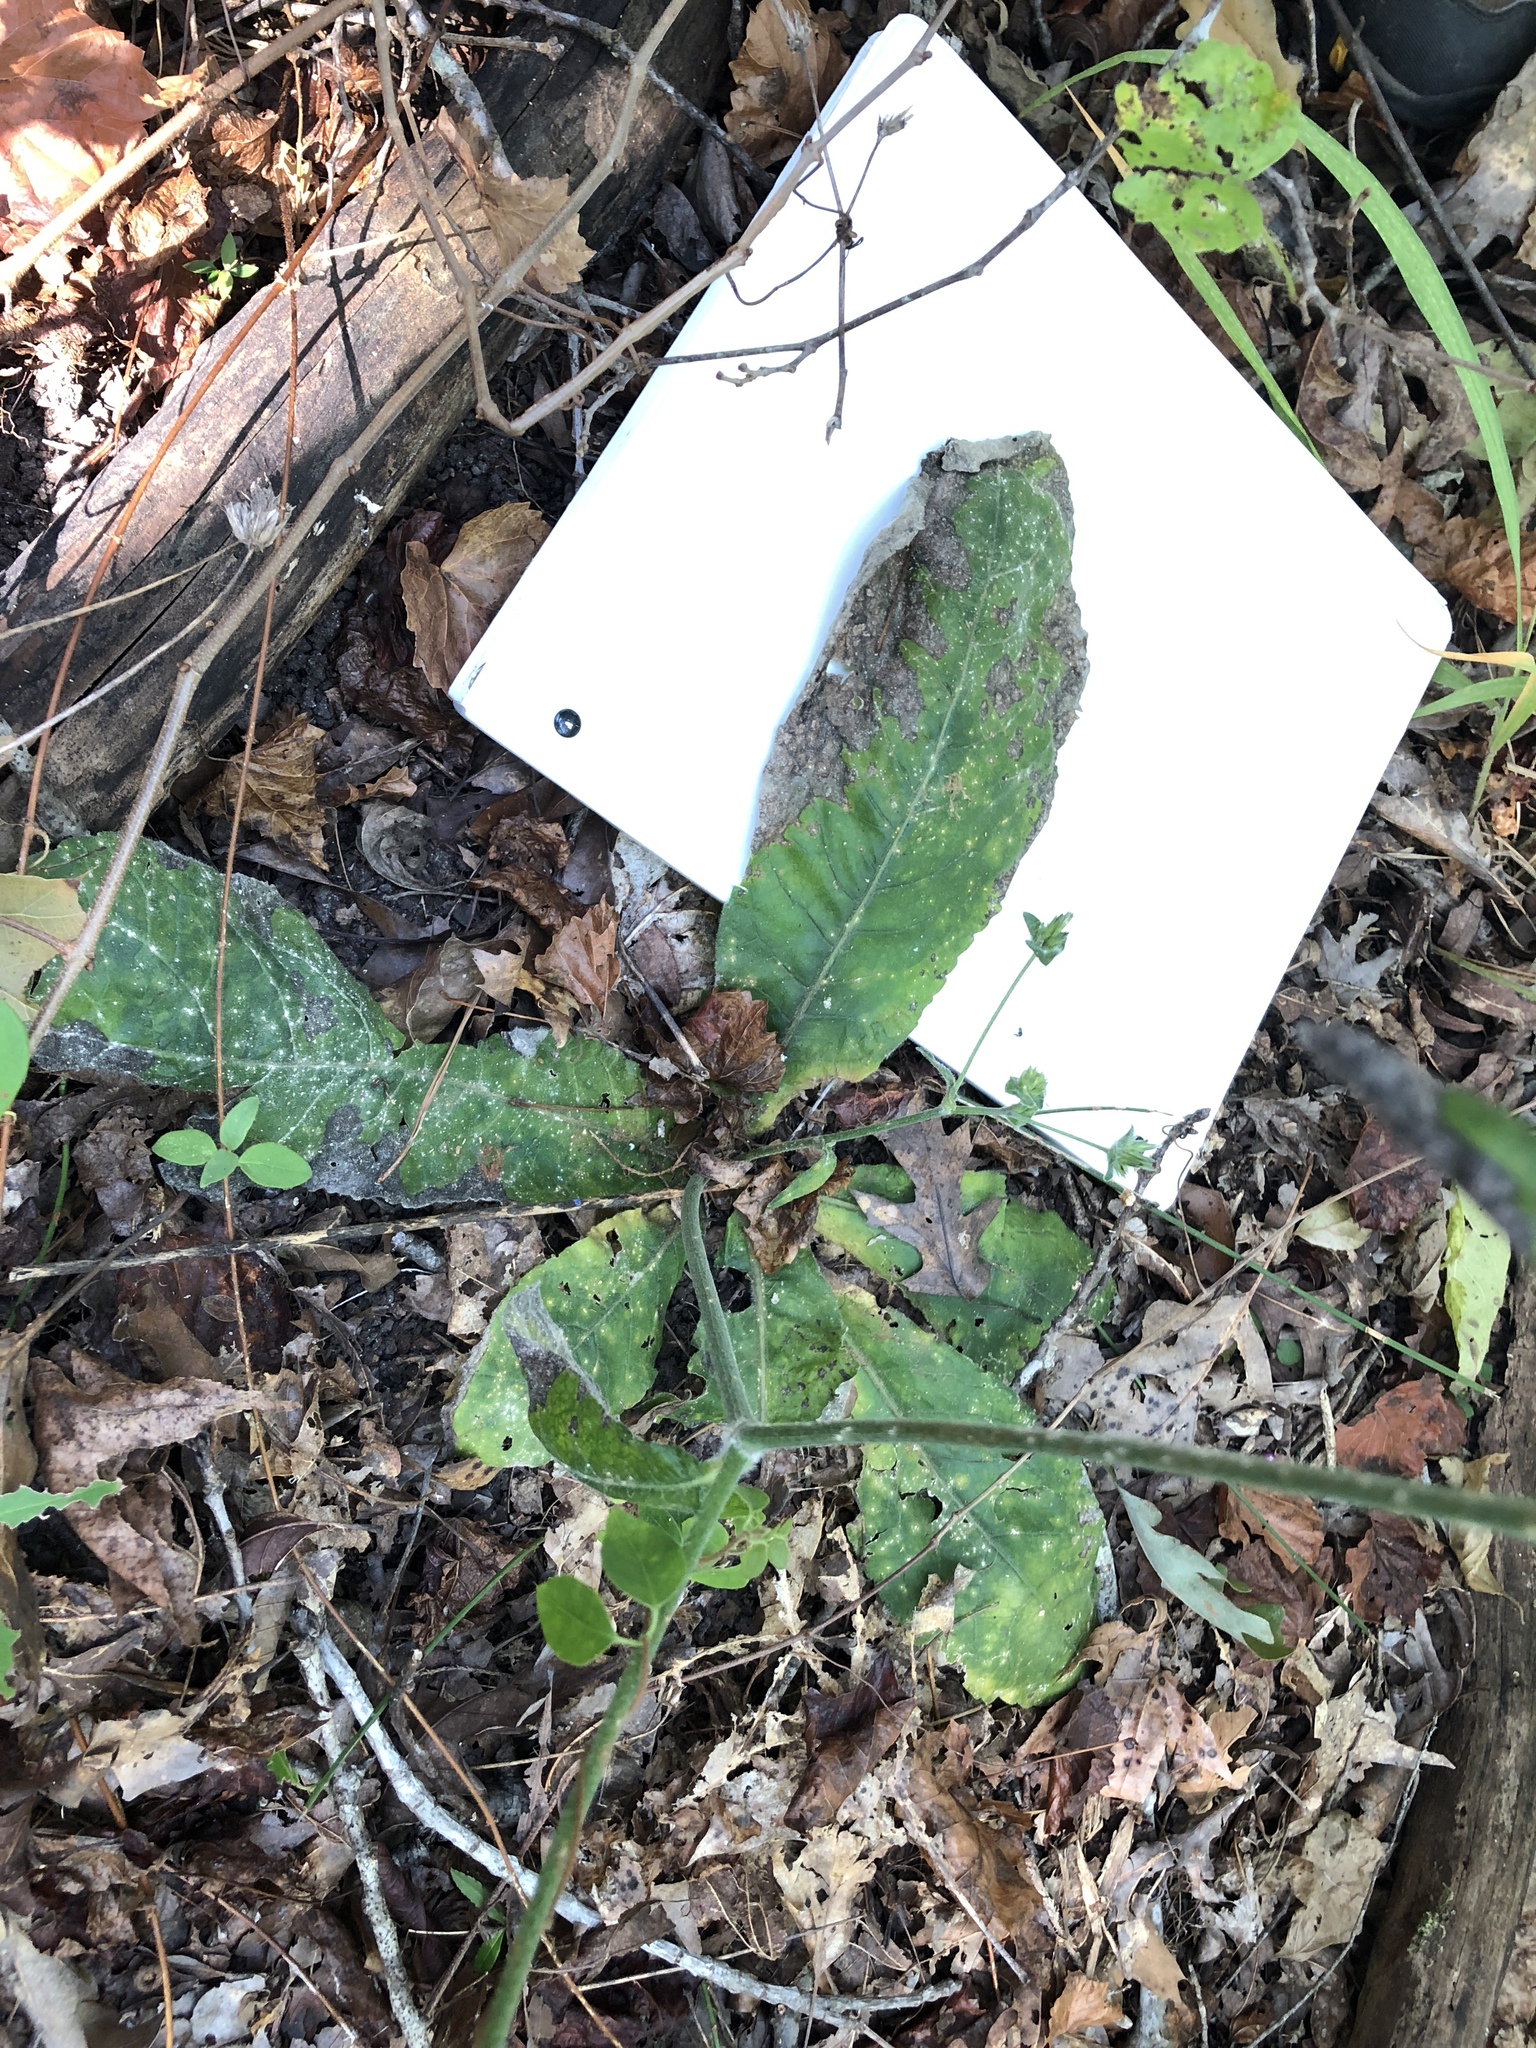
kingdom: Plantae
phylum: Tracheophyta
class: Magnoliopsida
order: Asterales
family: Asteraceae
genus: Elephantopus
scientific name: Elephantopus tomentosus
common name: Tobacco-weed
